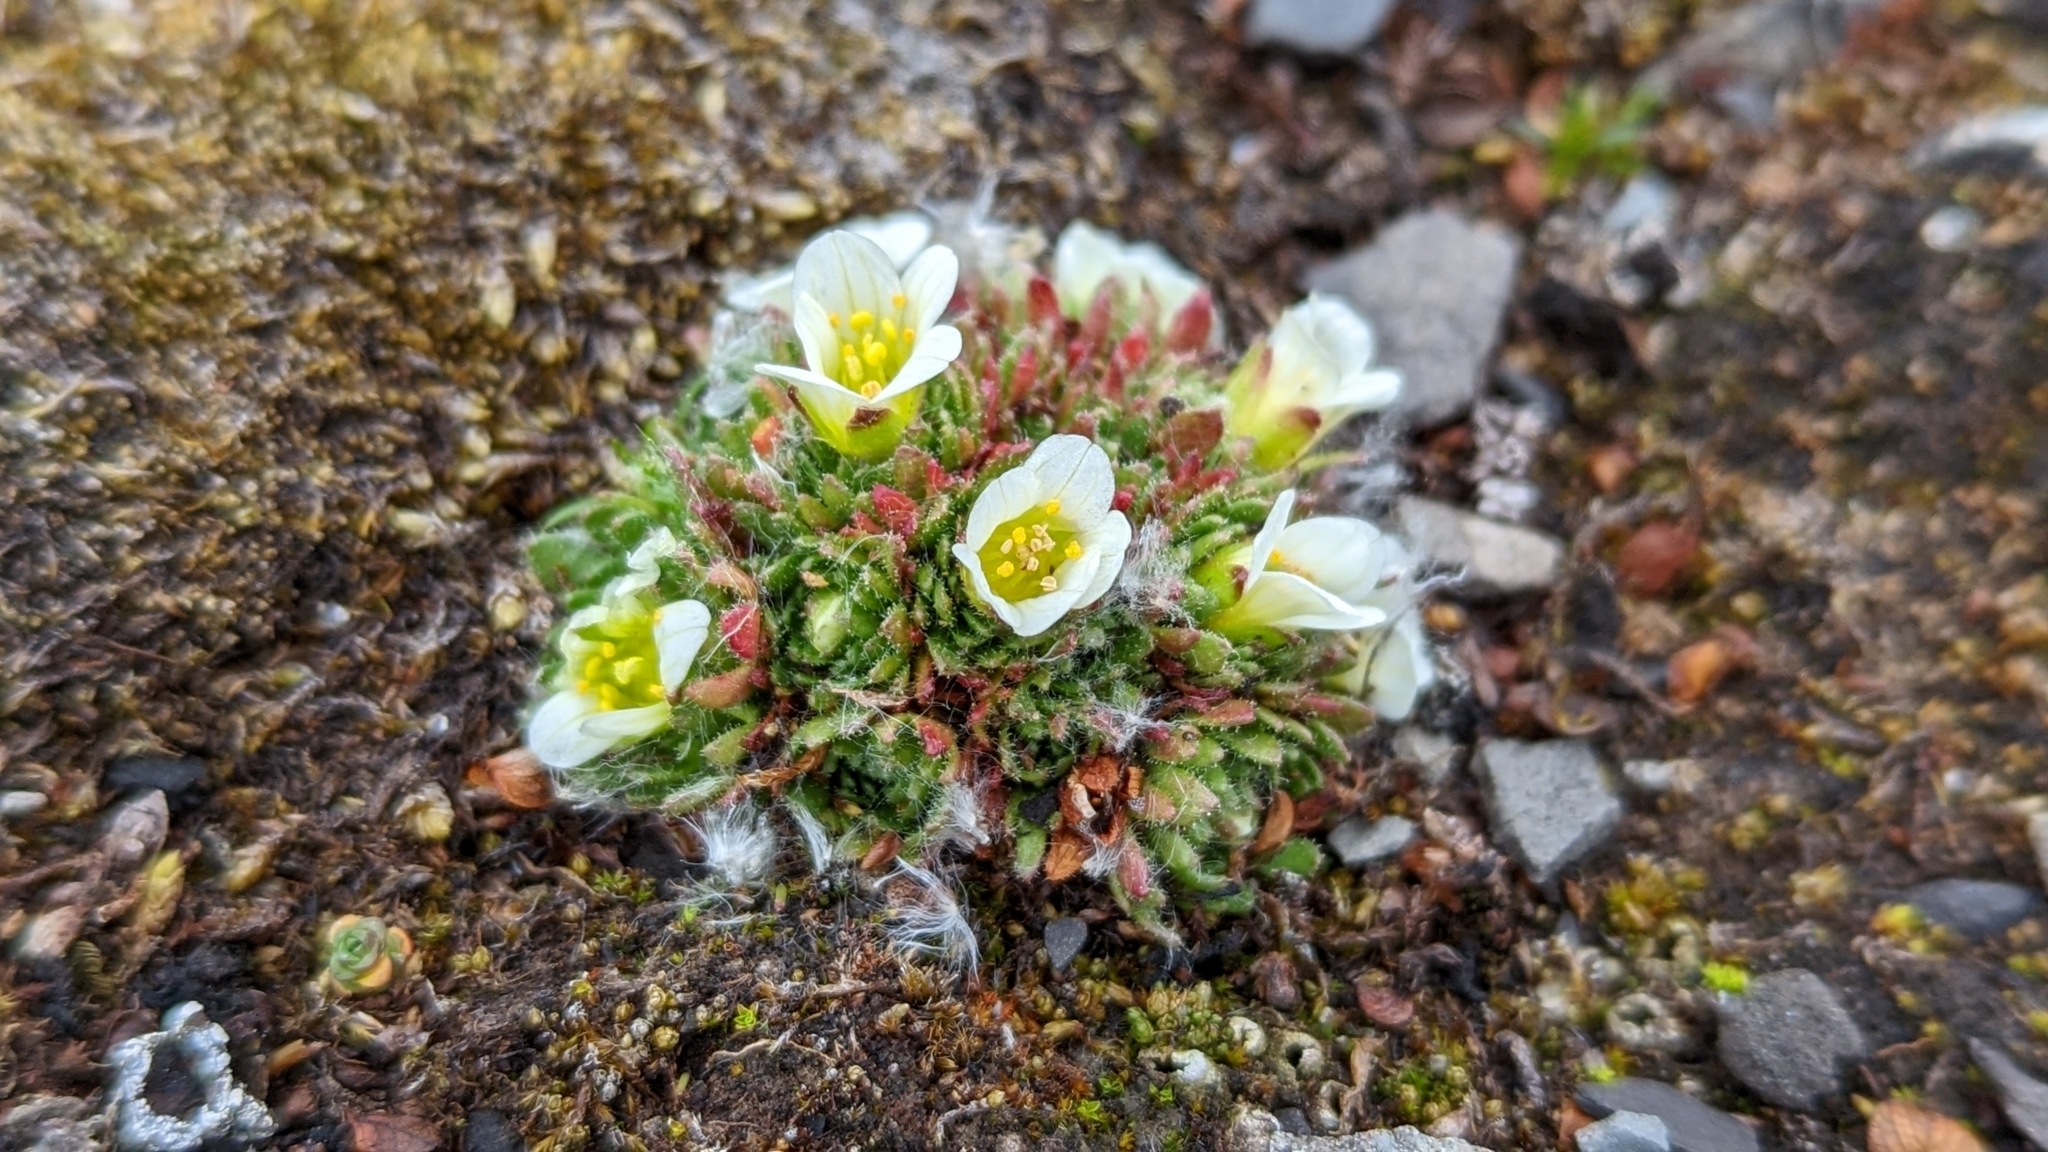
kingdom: Plantae
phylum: Tracheophyta
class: Magnoliopsida
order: Saxifragales
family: Saxifragaceae
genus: Saxifraga
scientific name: Saxifraga cespitosa
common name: Tufted saxifrage
